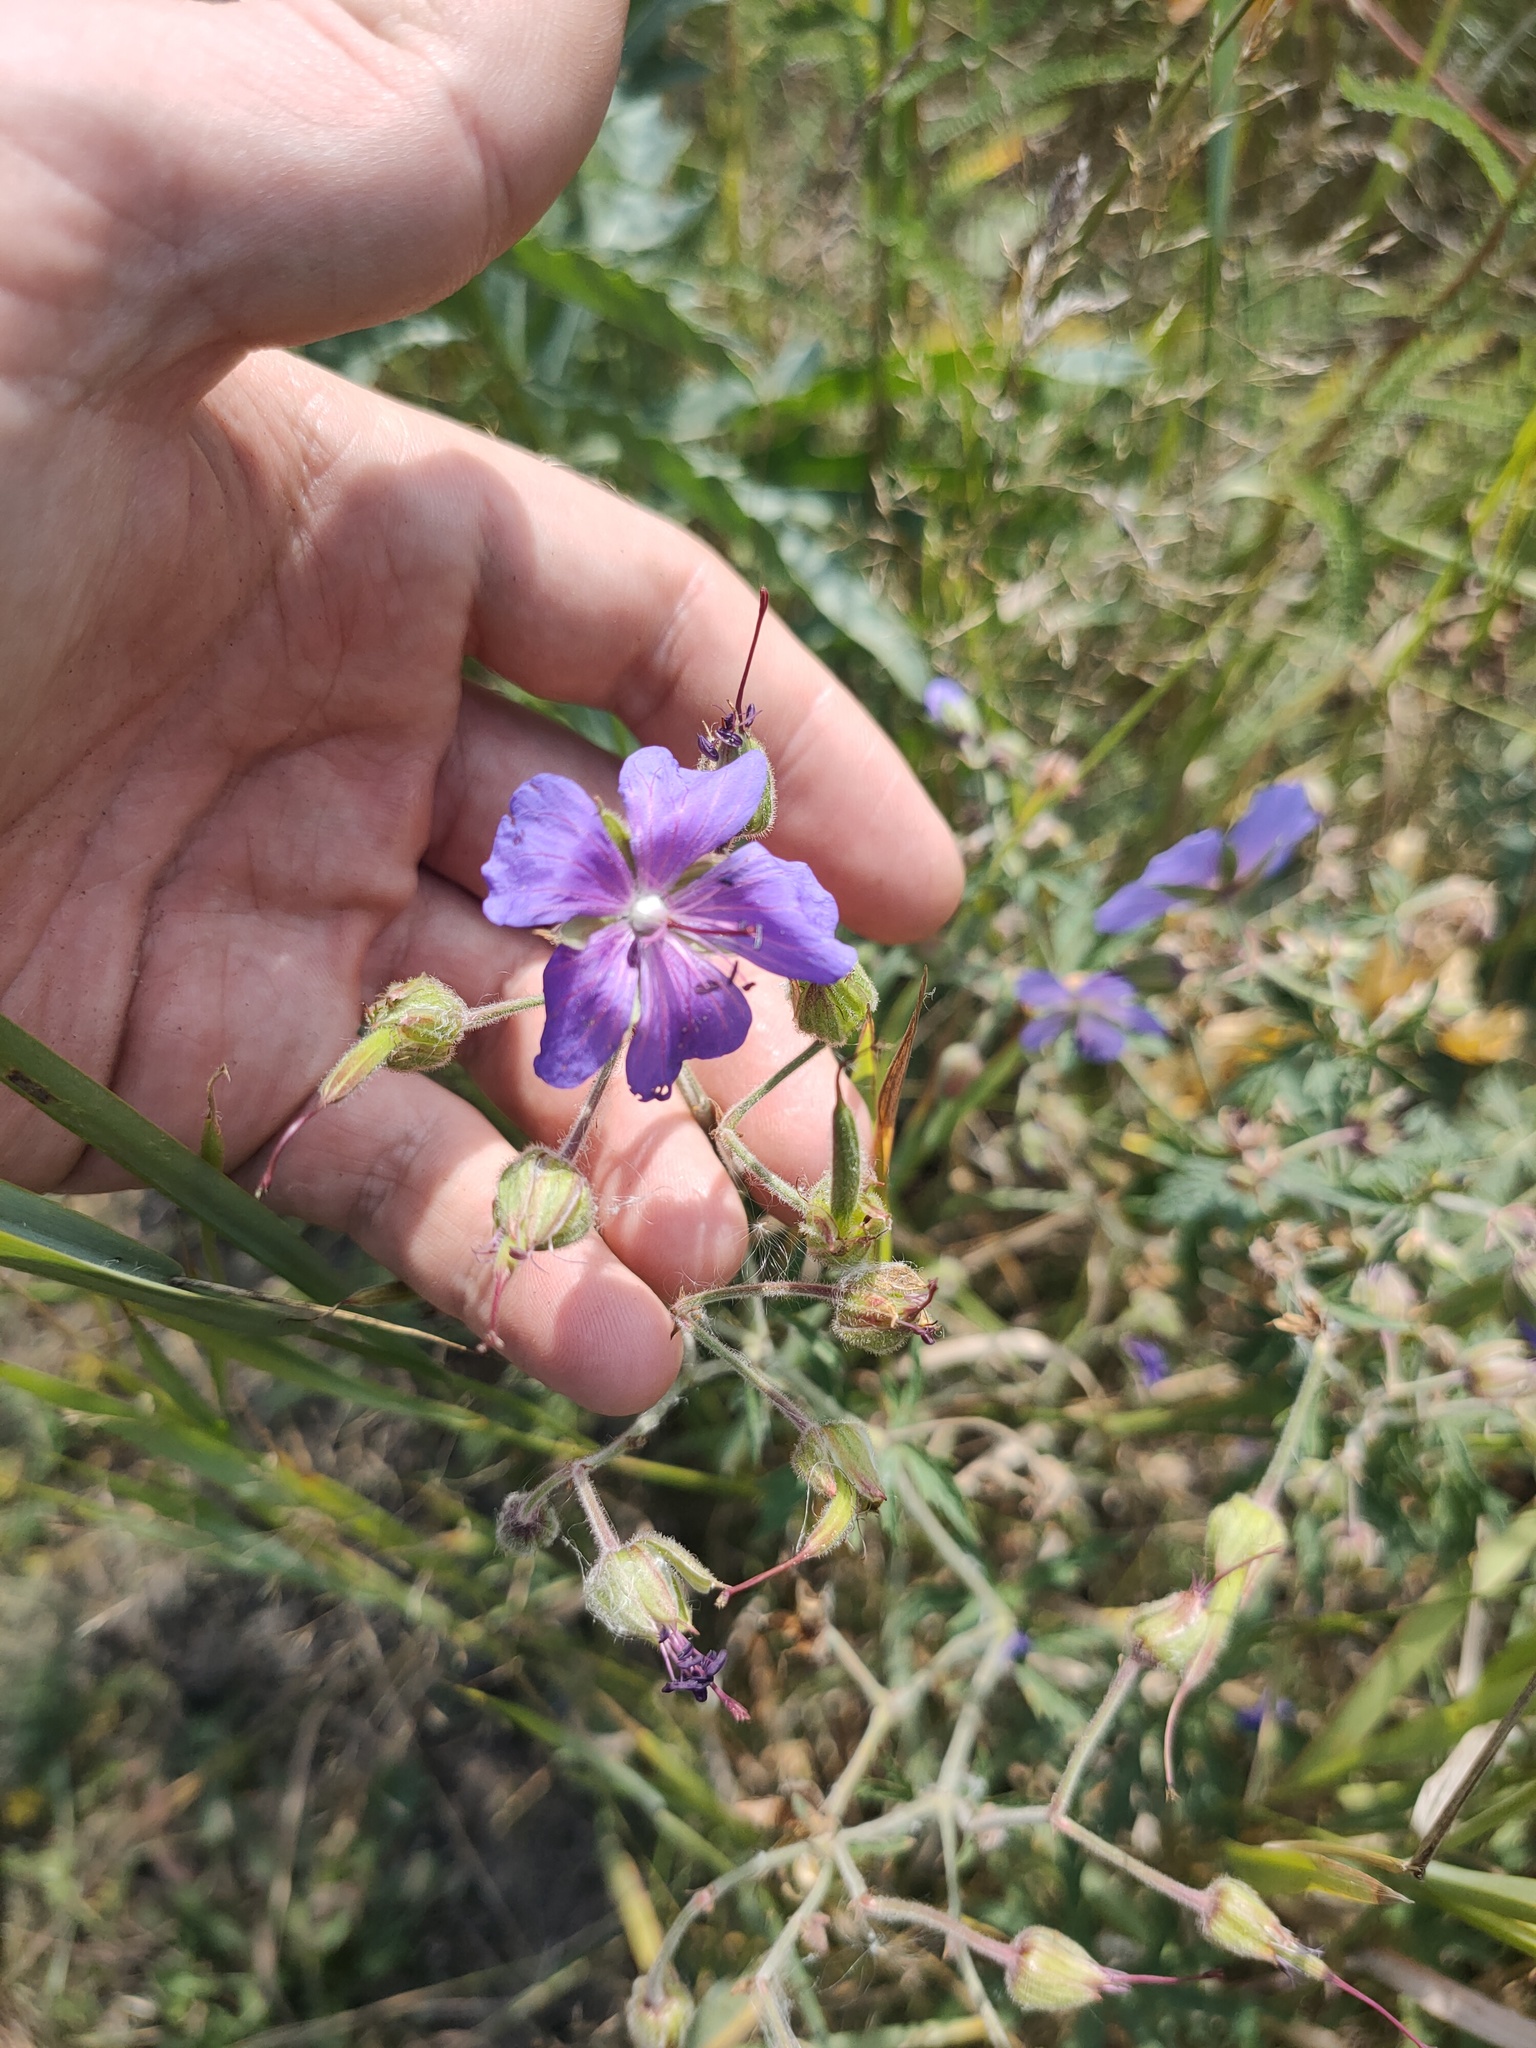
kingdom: Plantae
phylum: Tracheophyta
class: Magnoliopsida
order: Geraniales
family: Geraniaceae
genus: Geranium
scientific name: Geranium pratense
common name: Meadow crane's-bill
